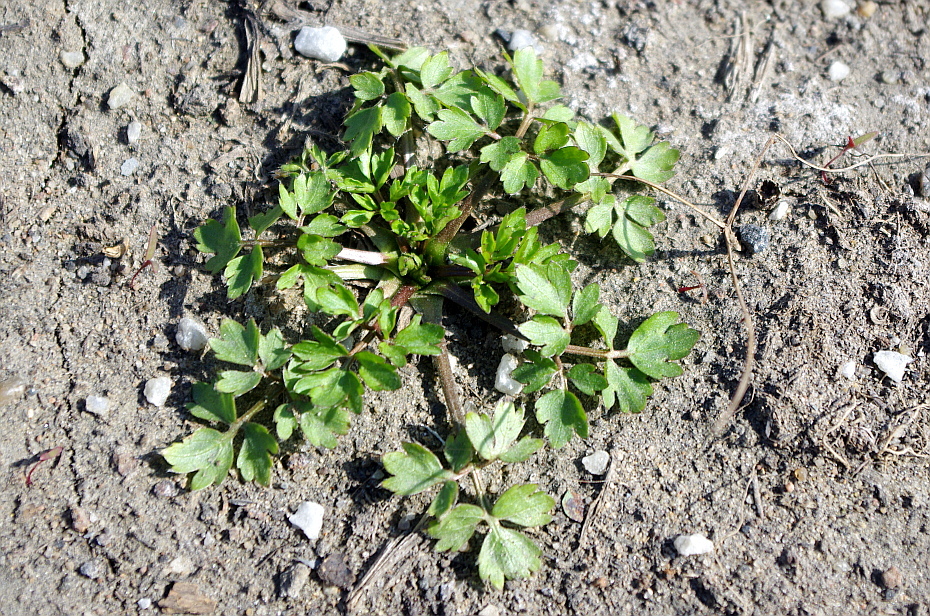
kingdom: Plantae
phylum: Tracheophyta
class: Magnoliopsida
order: Ranunculales
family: Ranunculaceae
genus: Ranunculus
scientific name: Ranunculus repens
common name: Creeping buttercup
